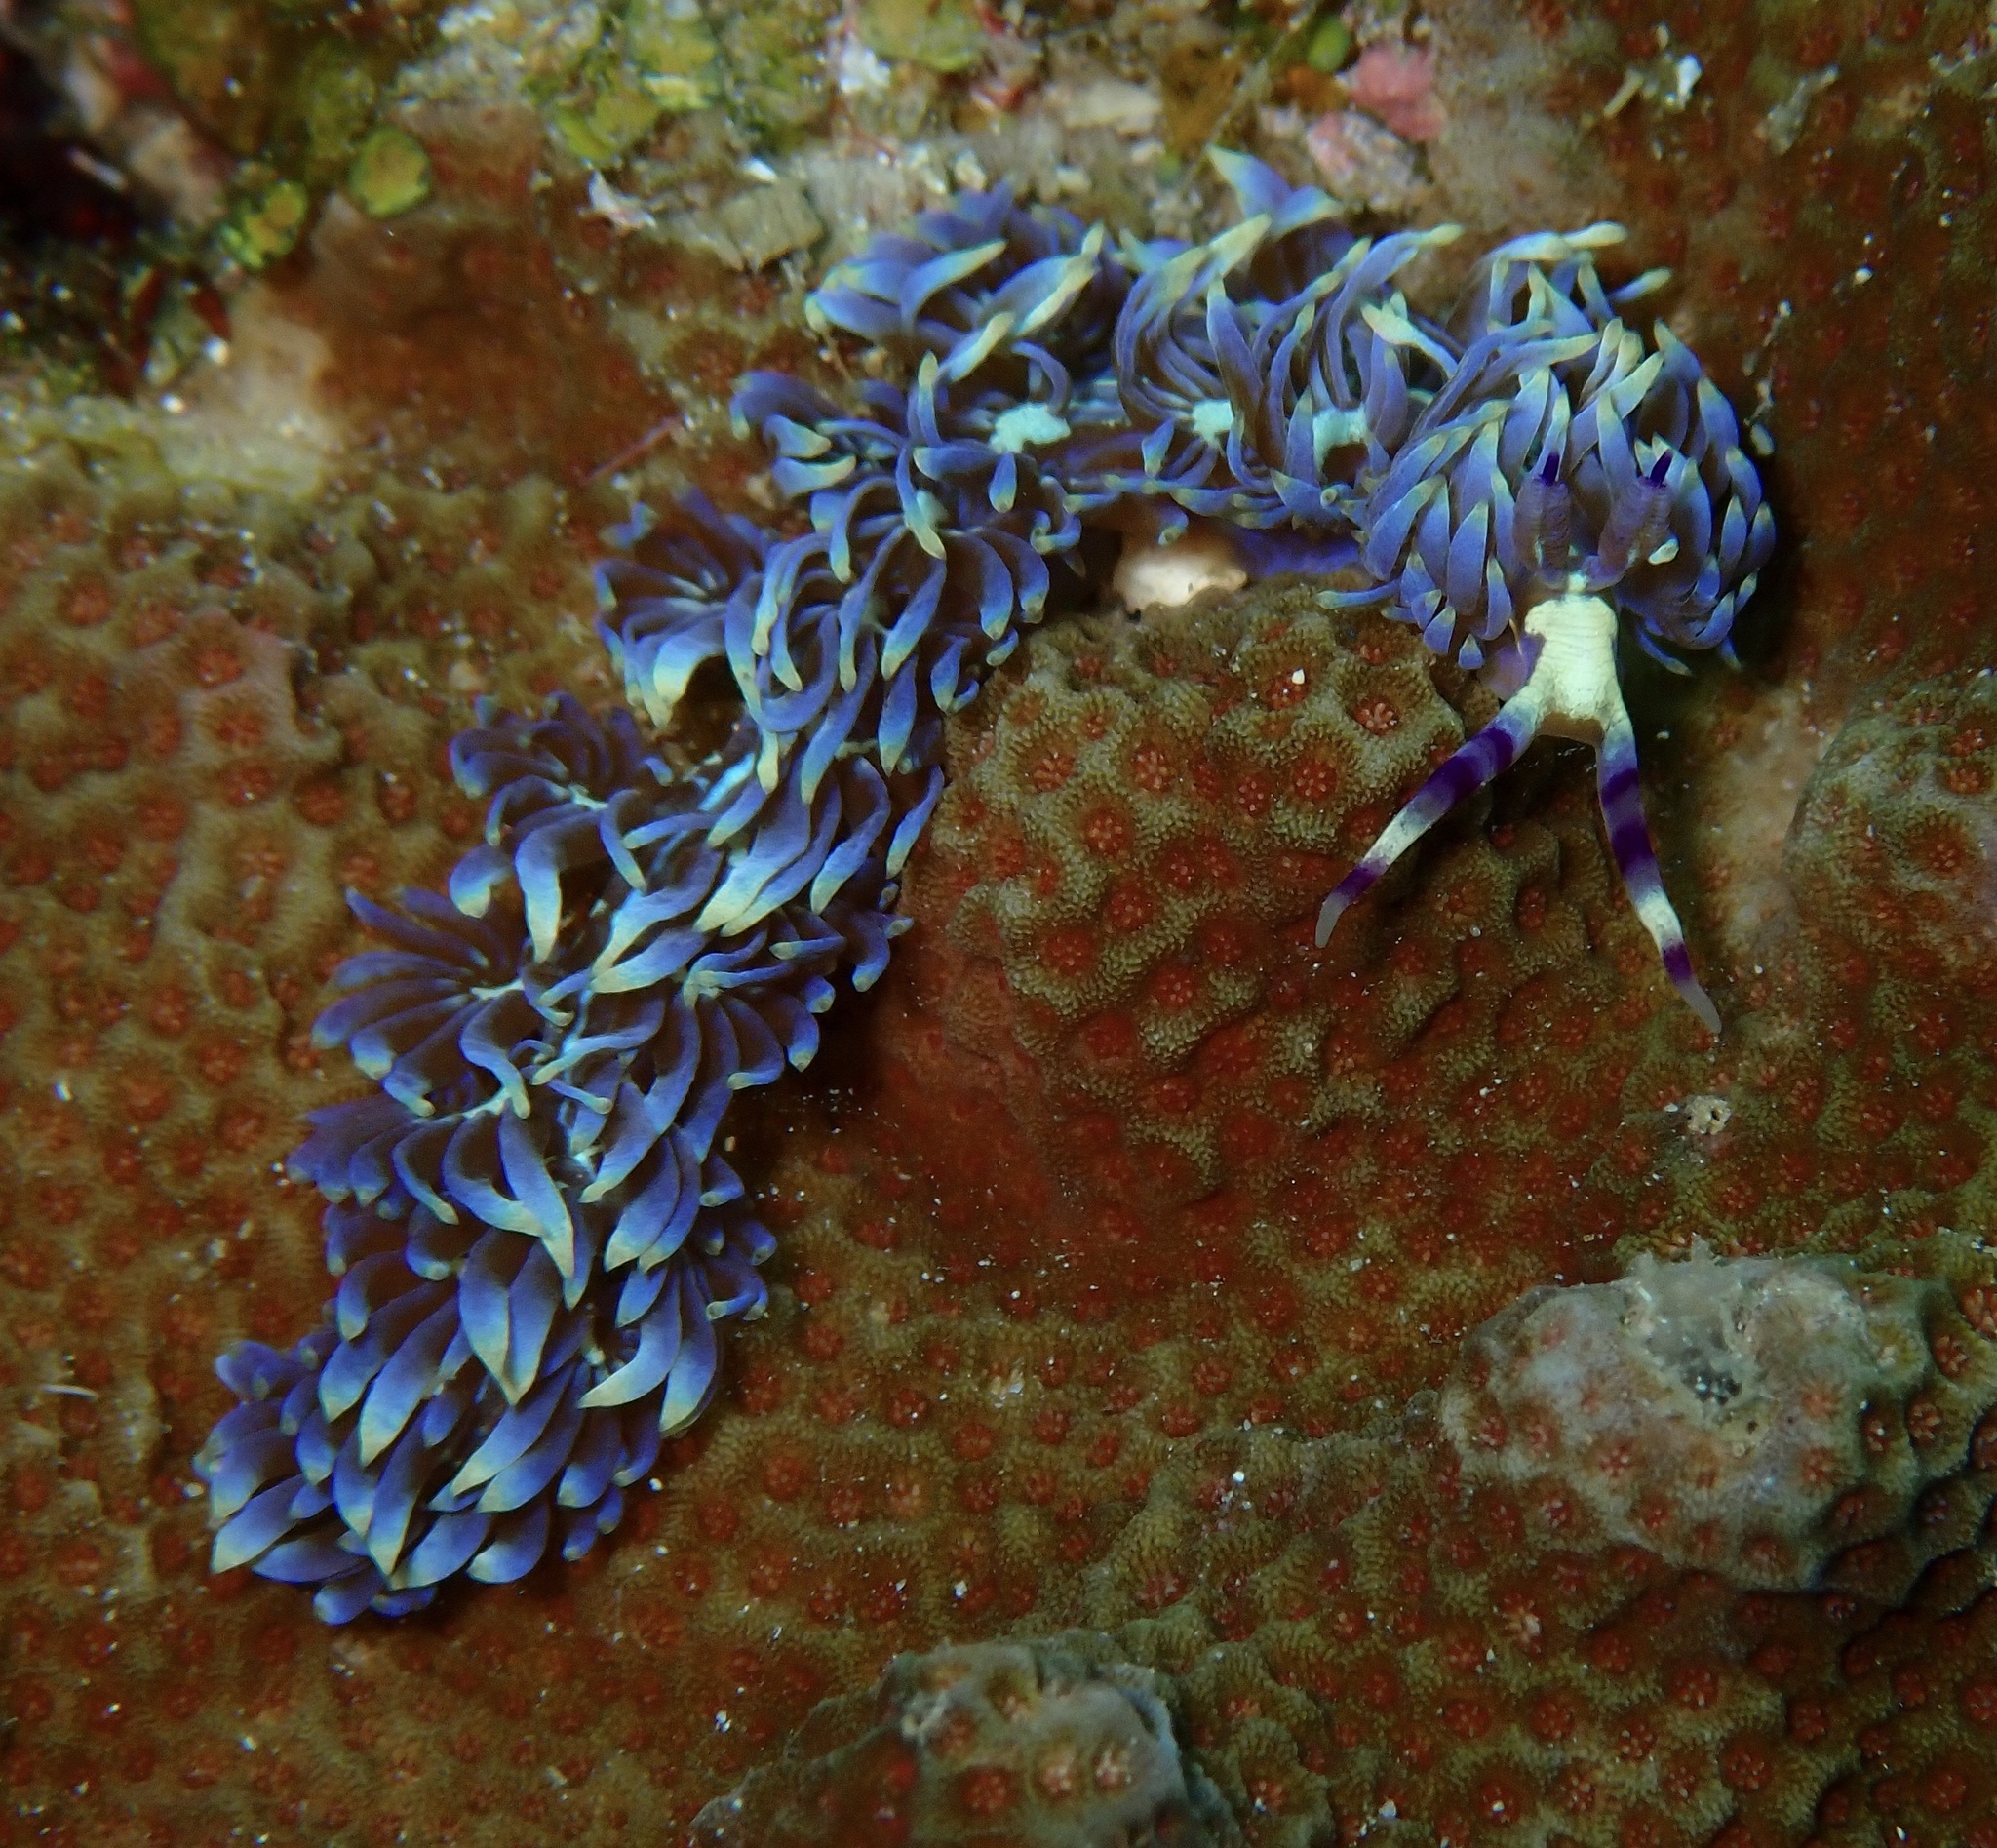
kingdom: Animalia
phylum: Mollusca
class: Gastropoda
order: Nudibranchia
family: Facelinidae
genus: Pteraeolidia
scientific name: Pteraeolidia semperi
